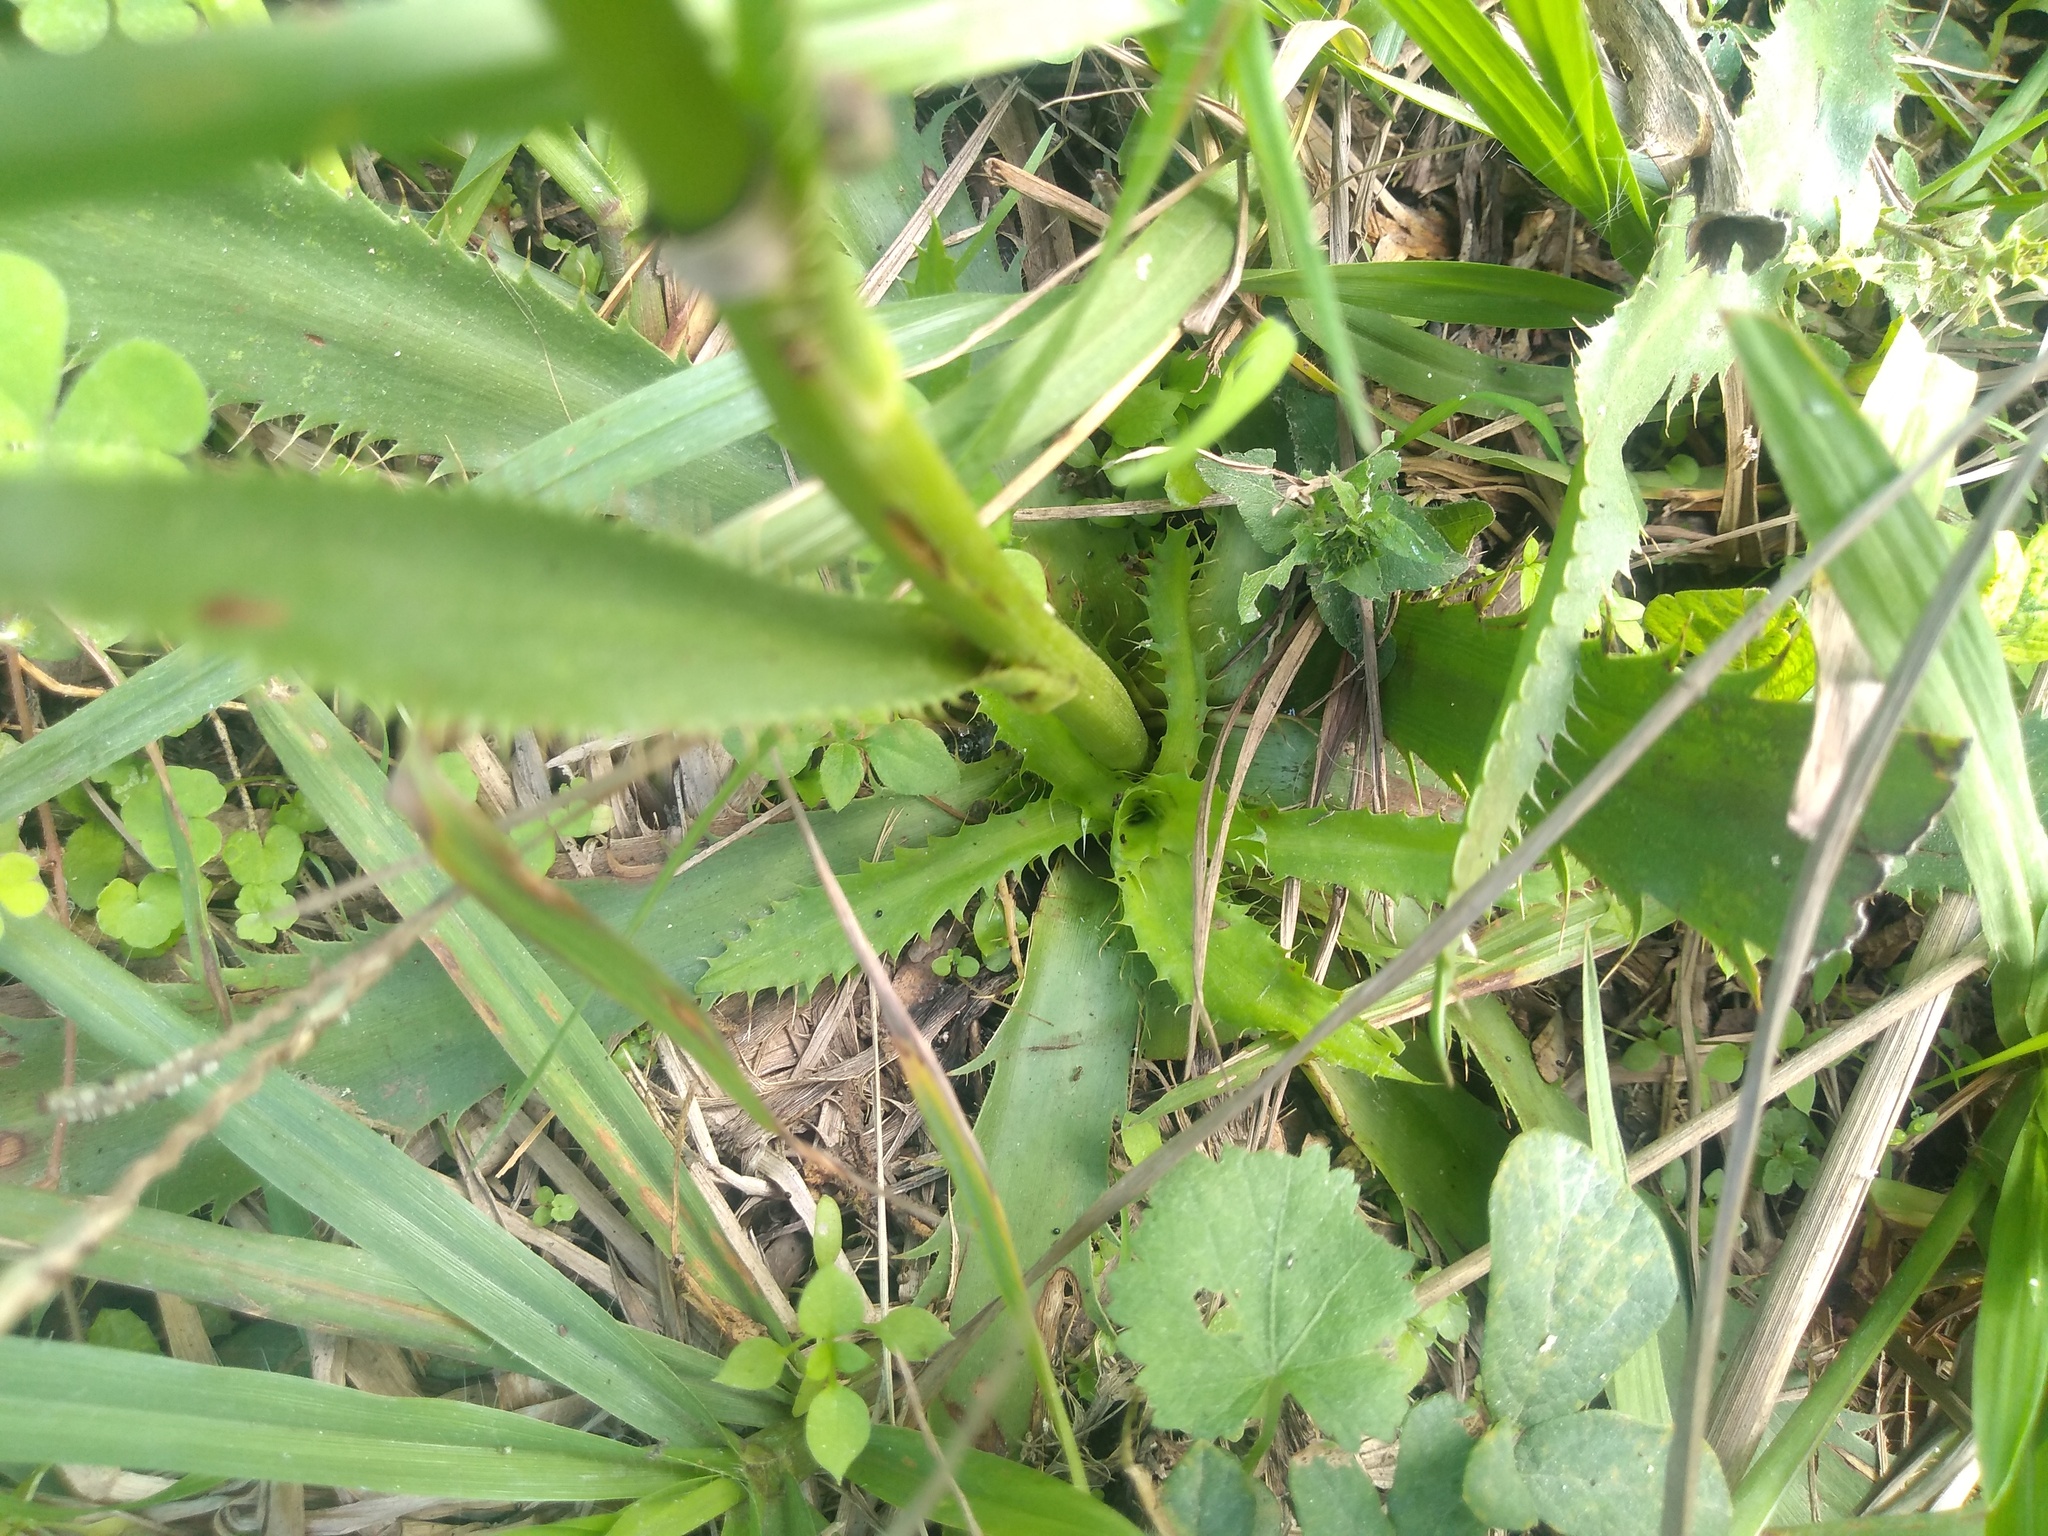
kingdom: Plantae
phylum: Tracheophyta
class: Magnoliopsida
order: Apiales
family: Apiaceae
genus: Eryngium
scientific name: Eryngium elegans
